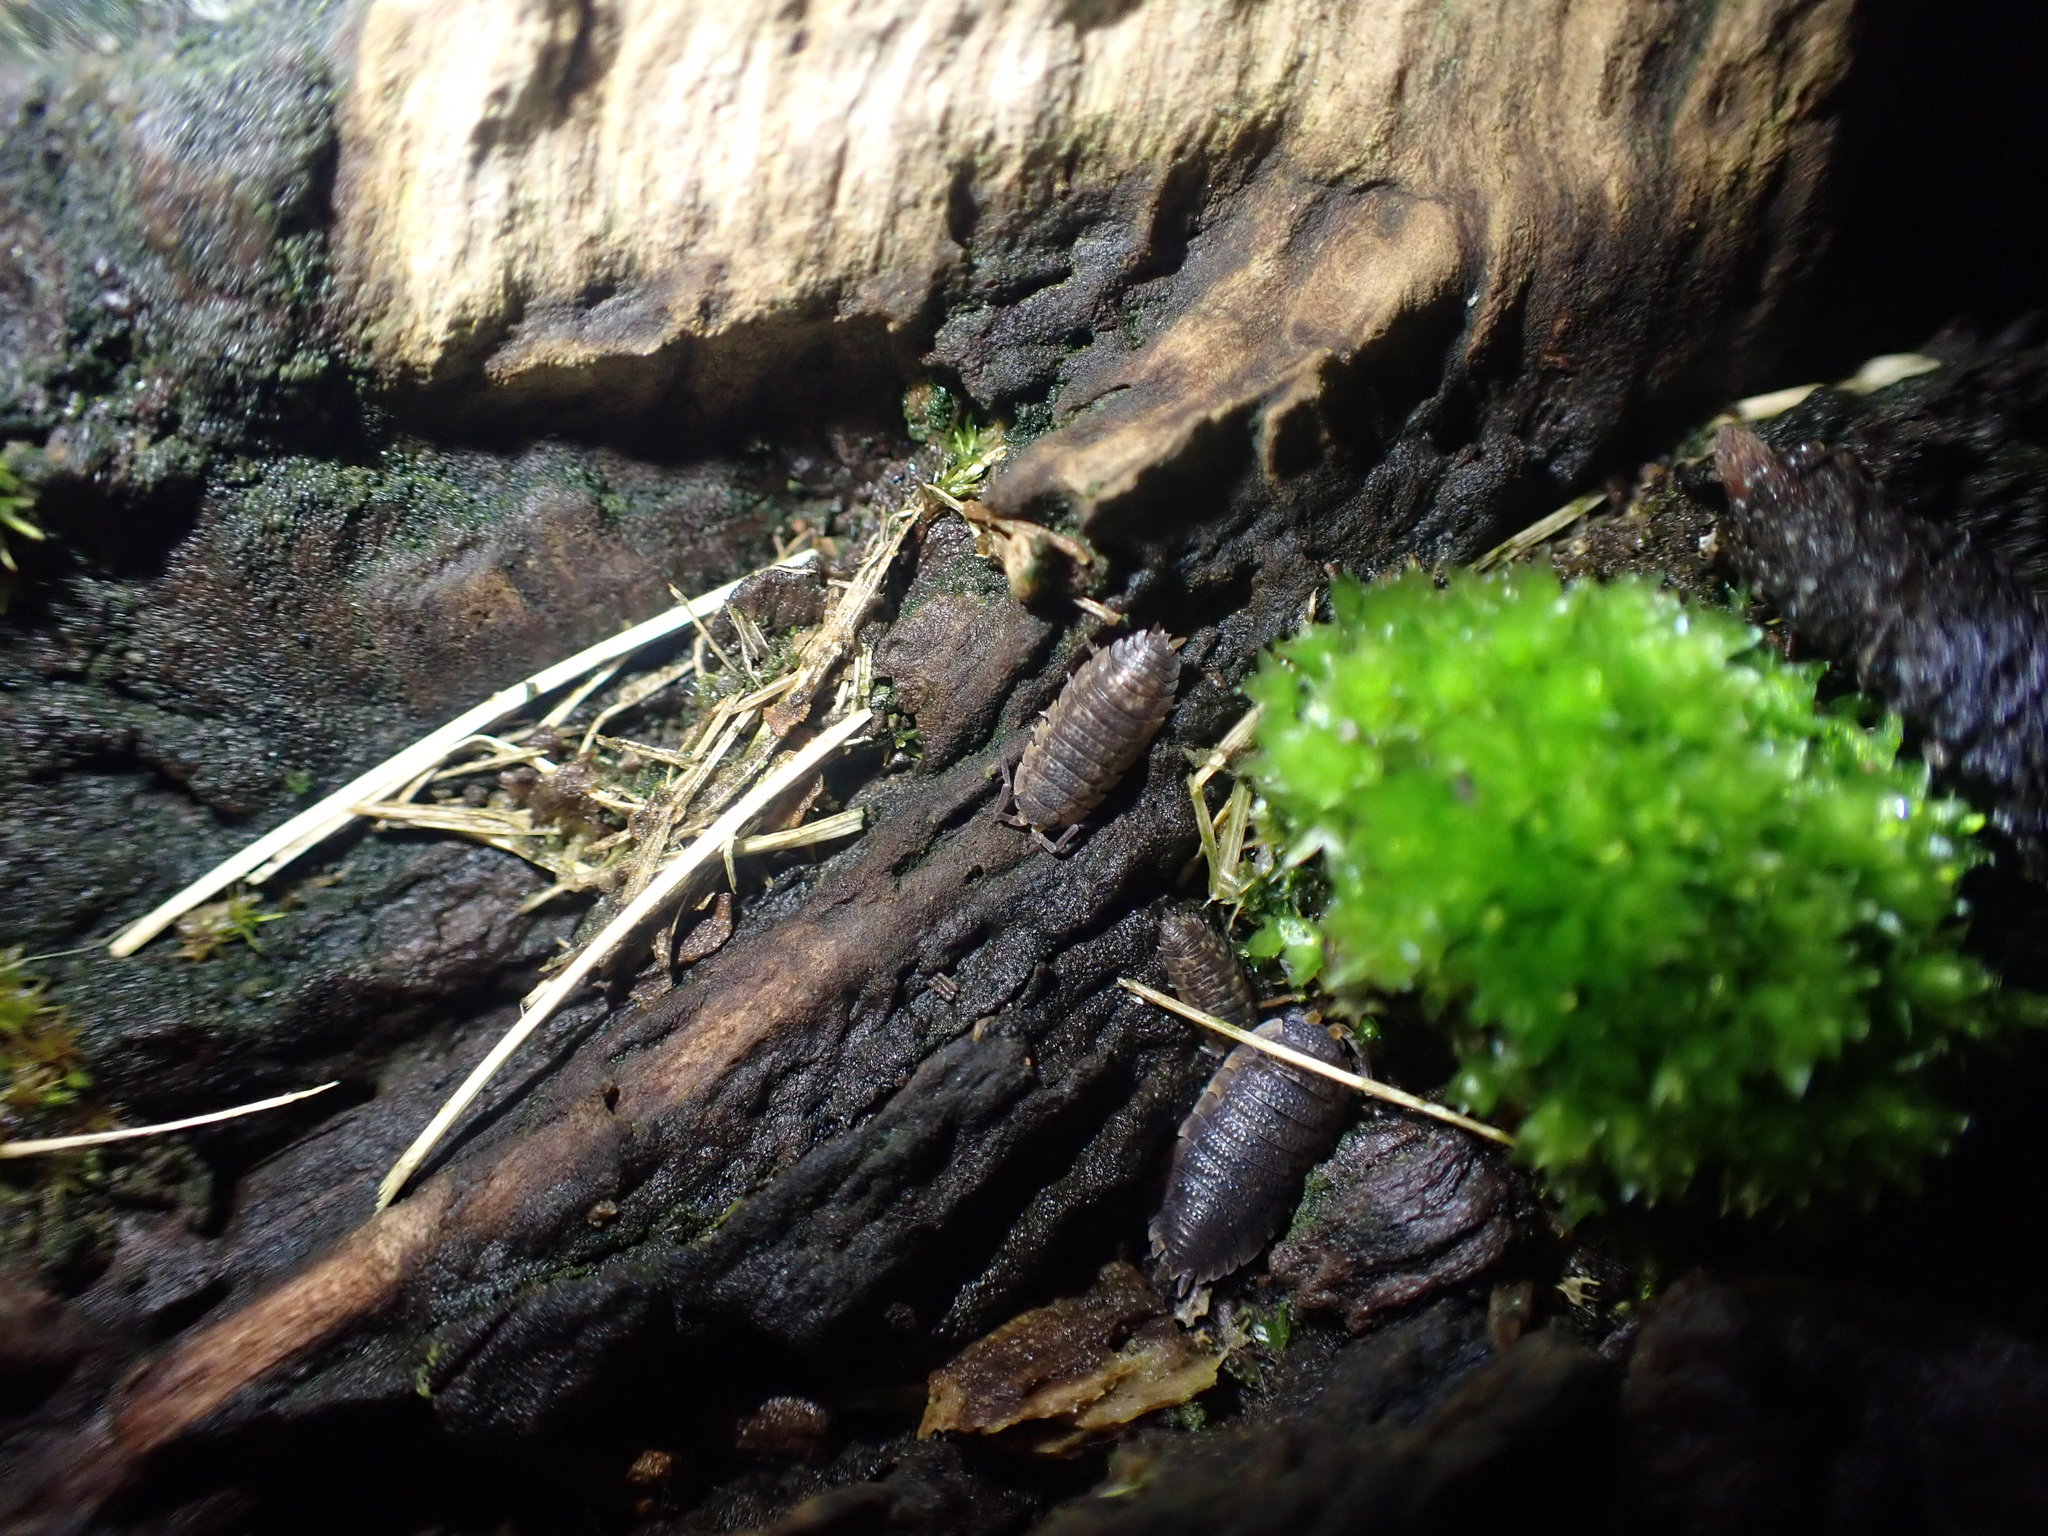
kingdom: Animalia
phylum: Arthropoda
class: Malacostraca
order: Isopoda
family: Porcellionidae
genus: Porcellio
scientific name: Porcellio scaber
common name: Common rough woodlouse
